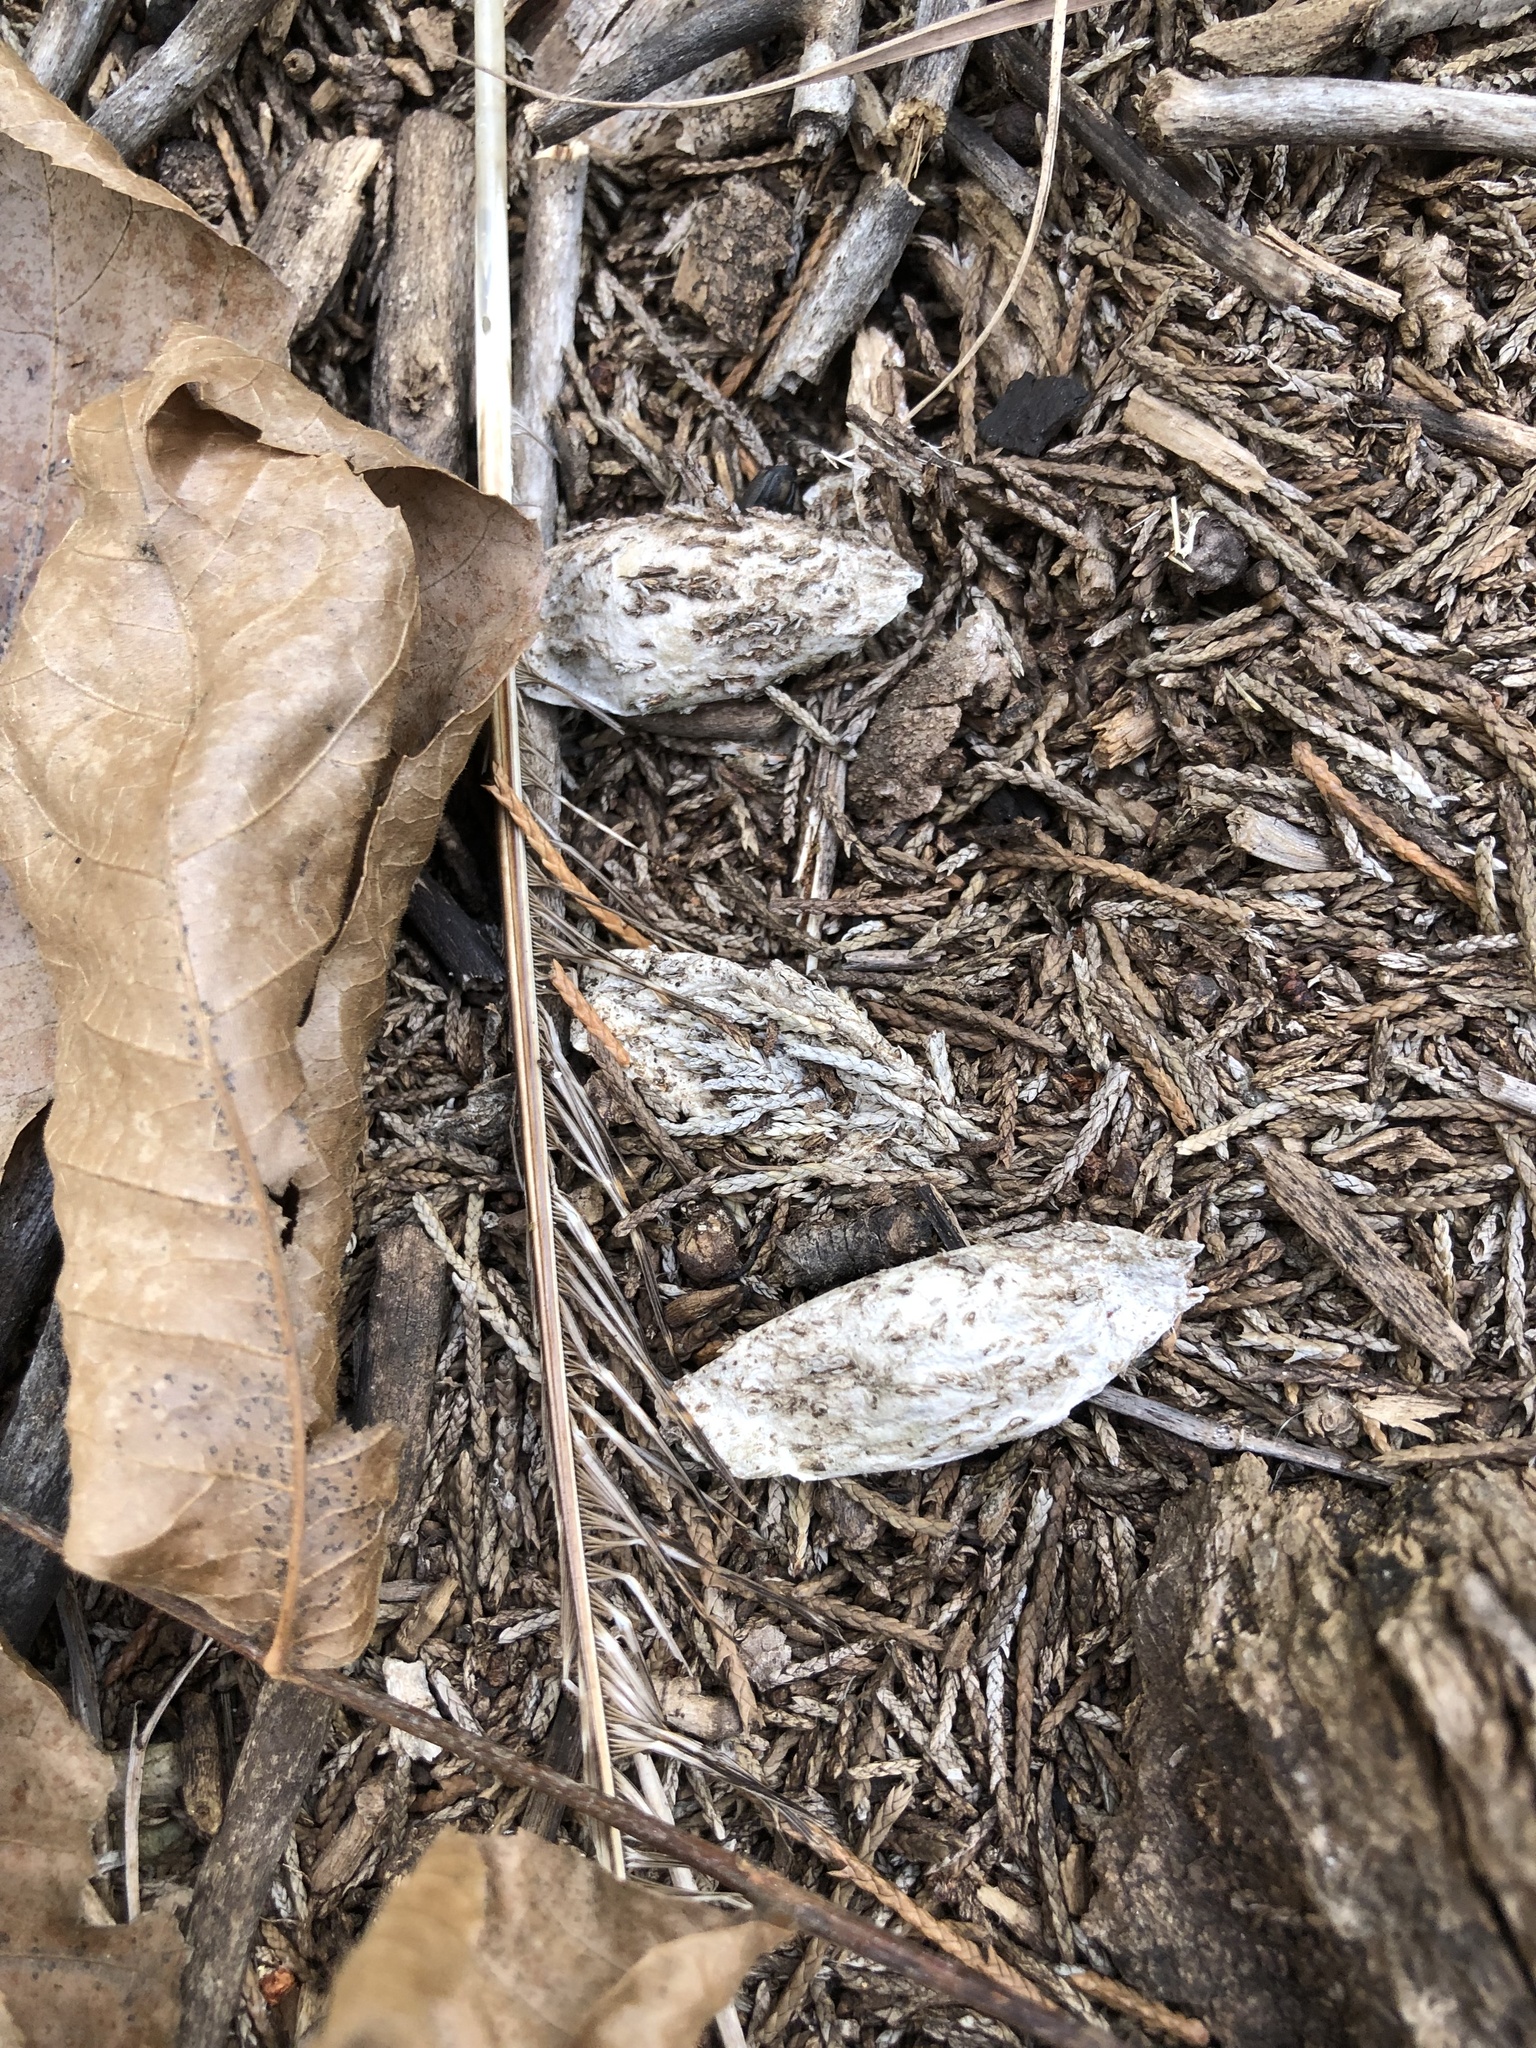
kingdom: Animalia
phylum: Arthropoda
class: Insecta
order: Lepidoptera
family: Psychidae
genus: Thyridopteryx
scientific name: Thyridopteryx ephemeraeformis
